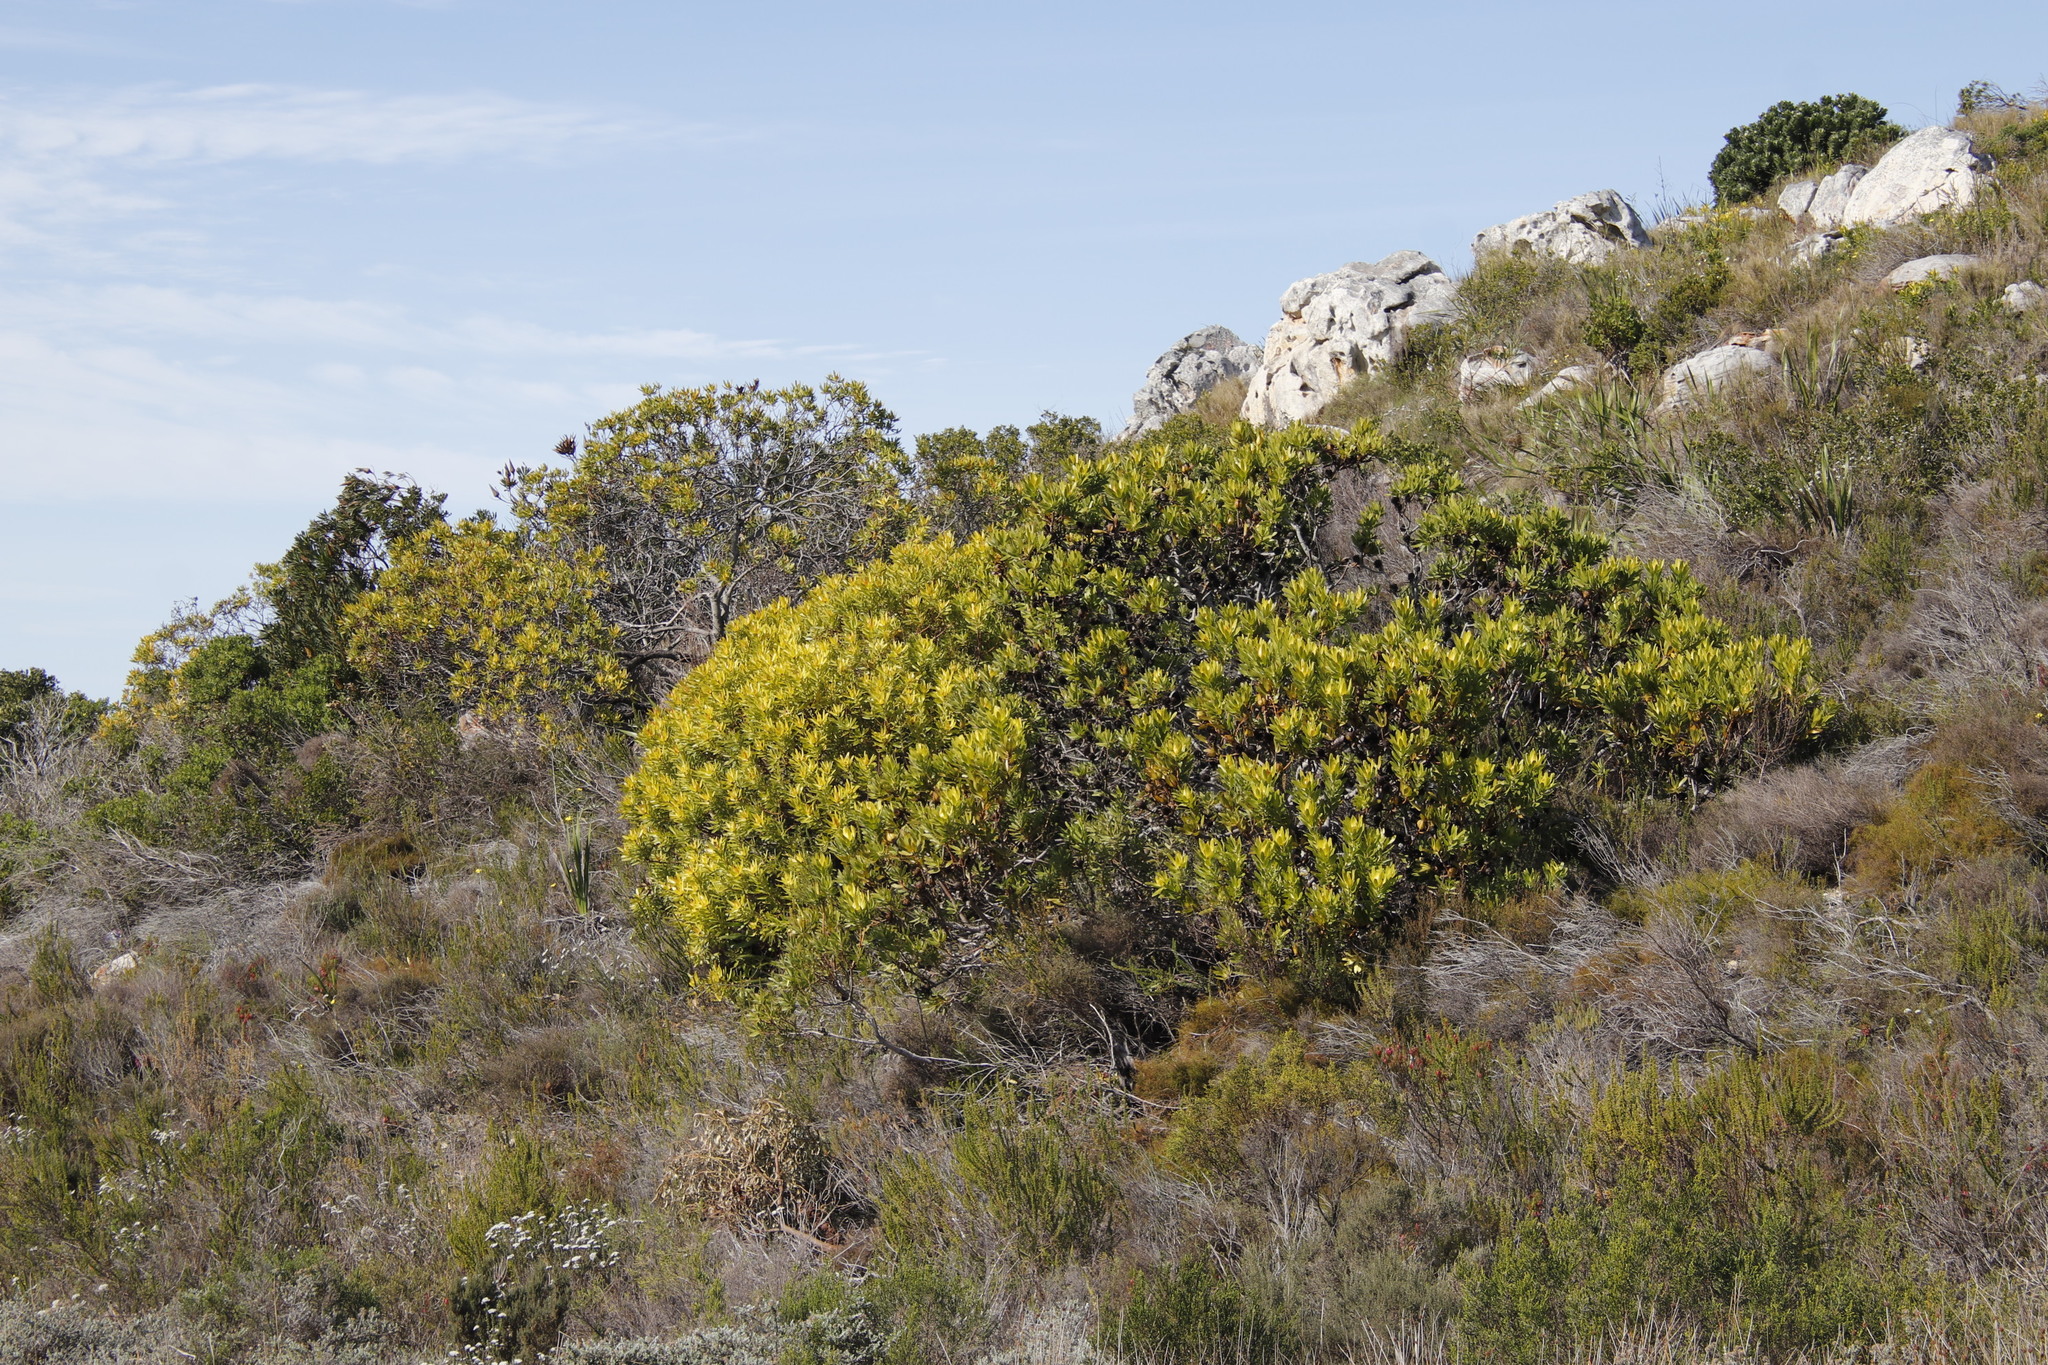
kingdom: Plantae
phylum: Tracheophyta
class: Magnoliopsida
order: Proteales
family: Proteaceae
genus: Leucadendron
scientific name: Leucadendron laureolum
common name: Golden sunshinebush
